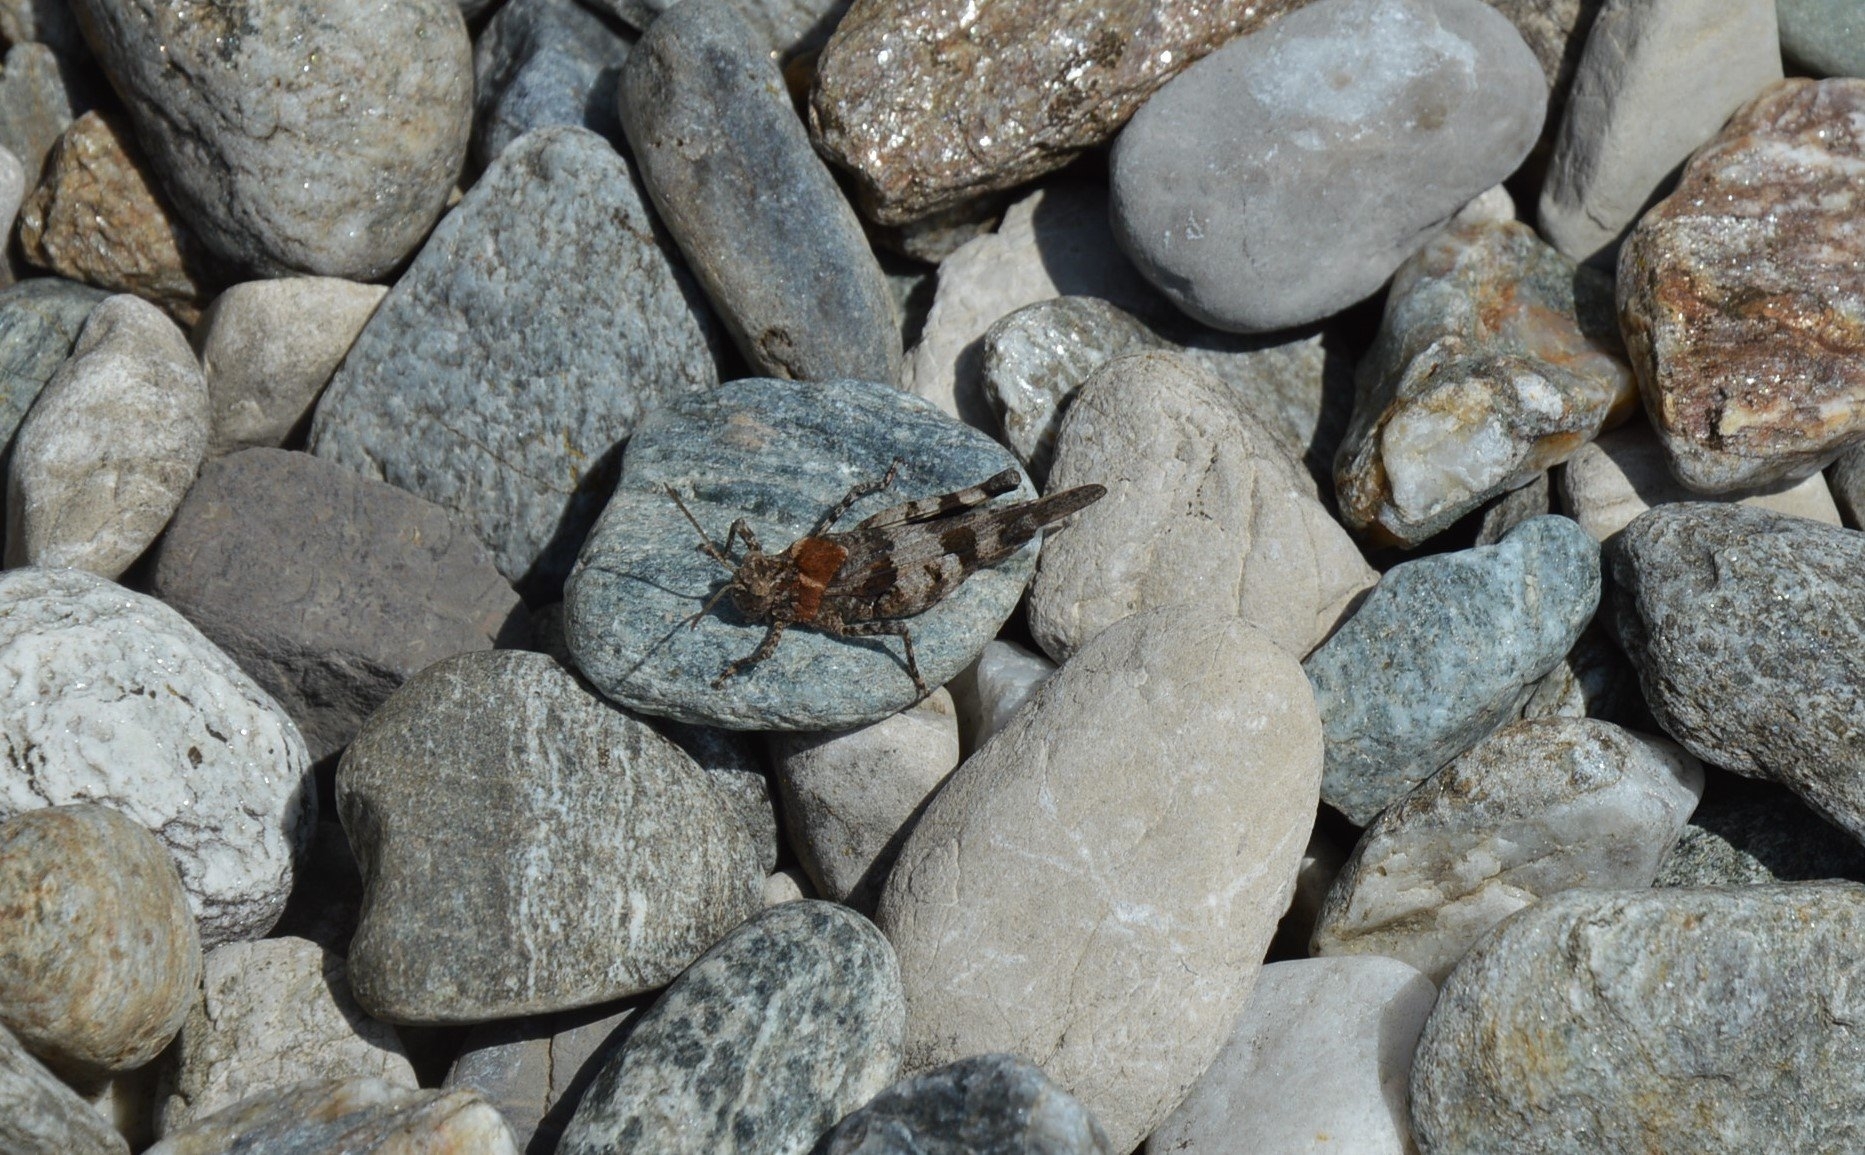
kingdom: Animalia
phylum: Arthropoda
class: Insecta
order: Orthoptera
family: Acrididae
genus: Oedipoda
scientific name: Oedipoda caerulescens
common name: Blue-winged grasshopper
